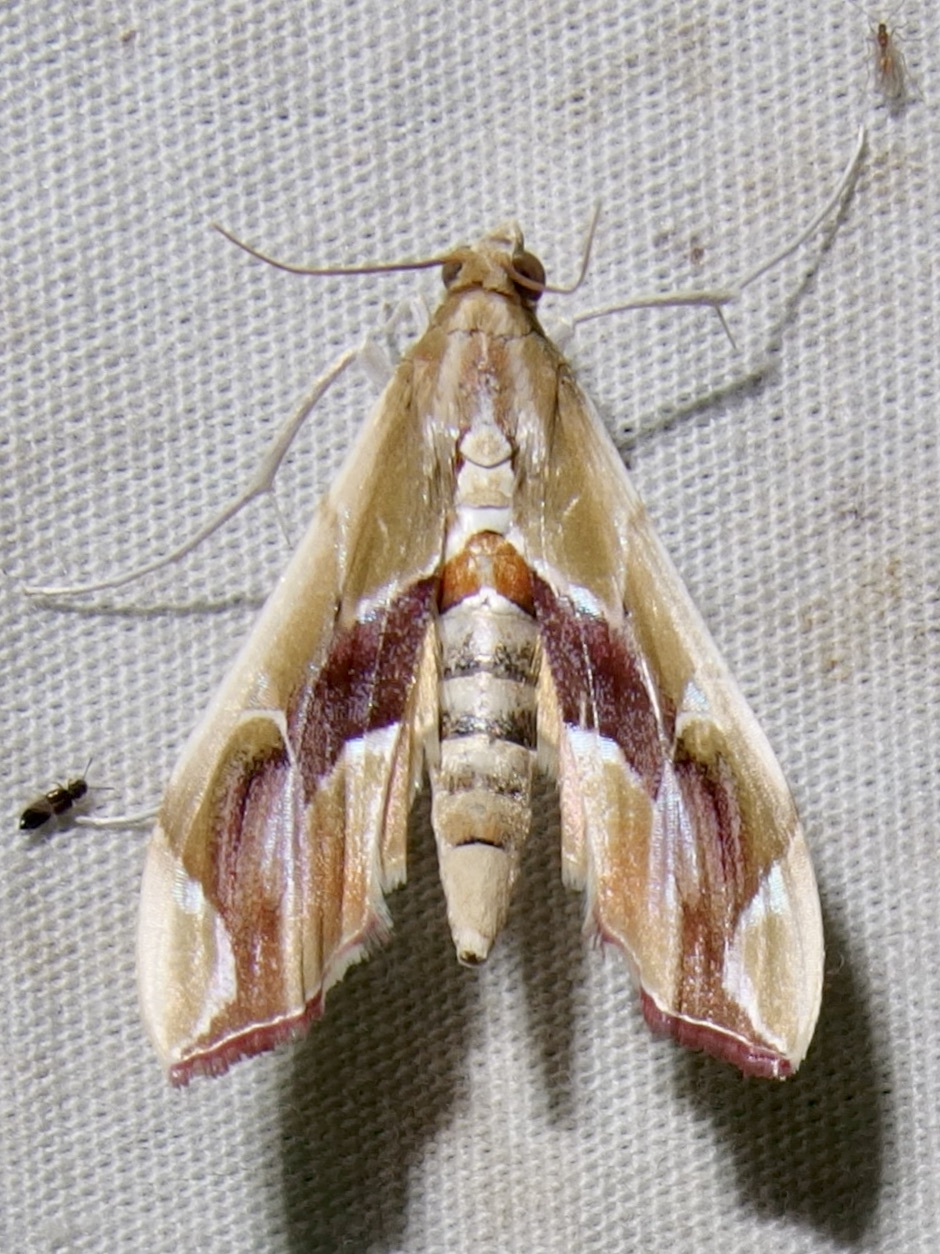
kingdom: Animalia
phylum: Arthropoda
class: Insecta
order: Lepidoptera
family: Crambidae
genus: Agathodes
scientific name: Agathodes monstralis
